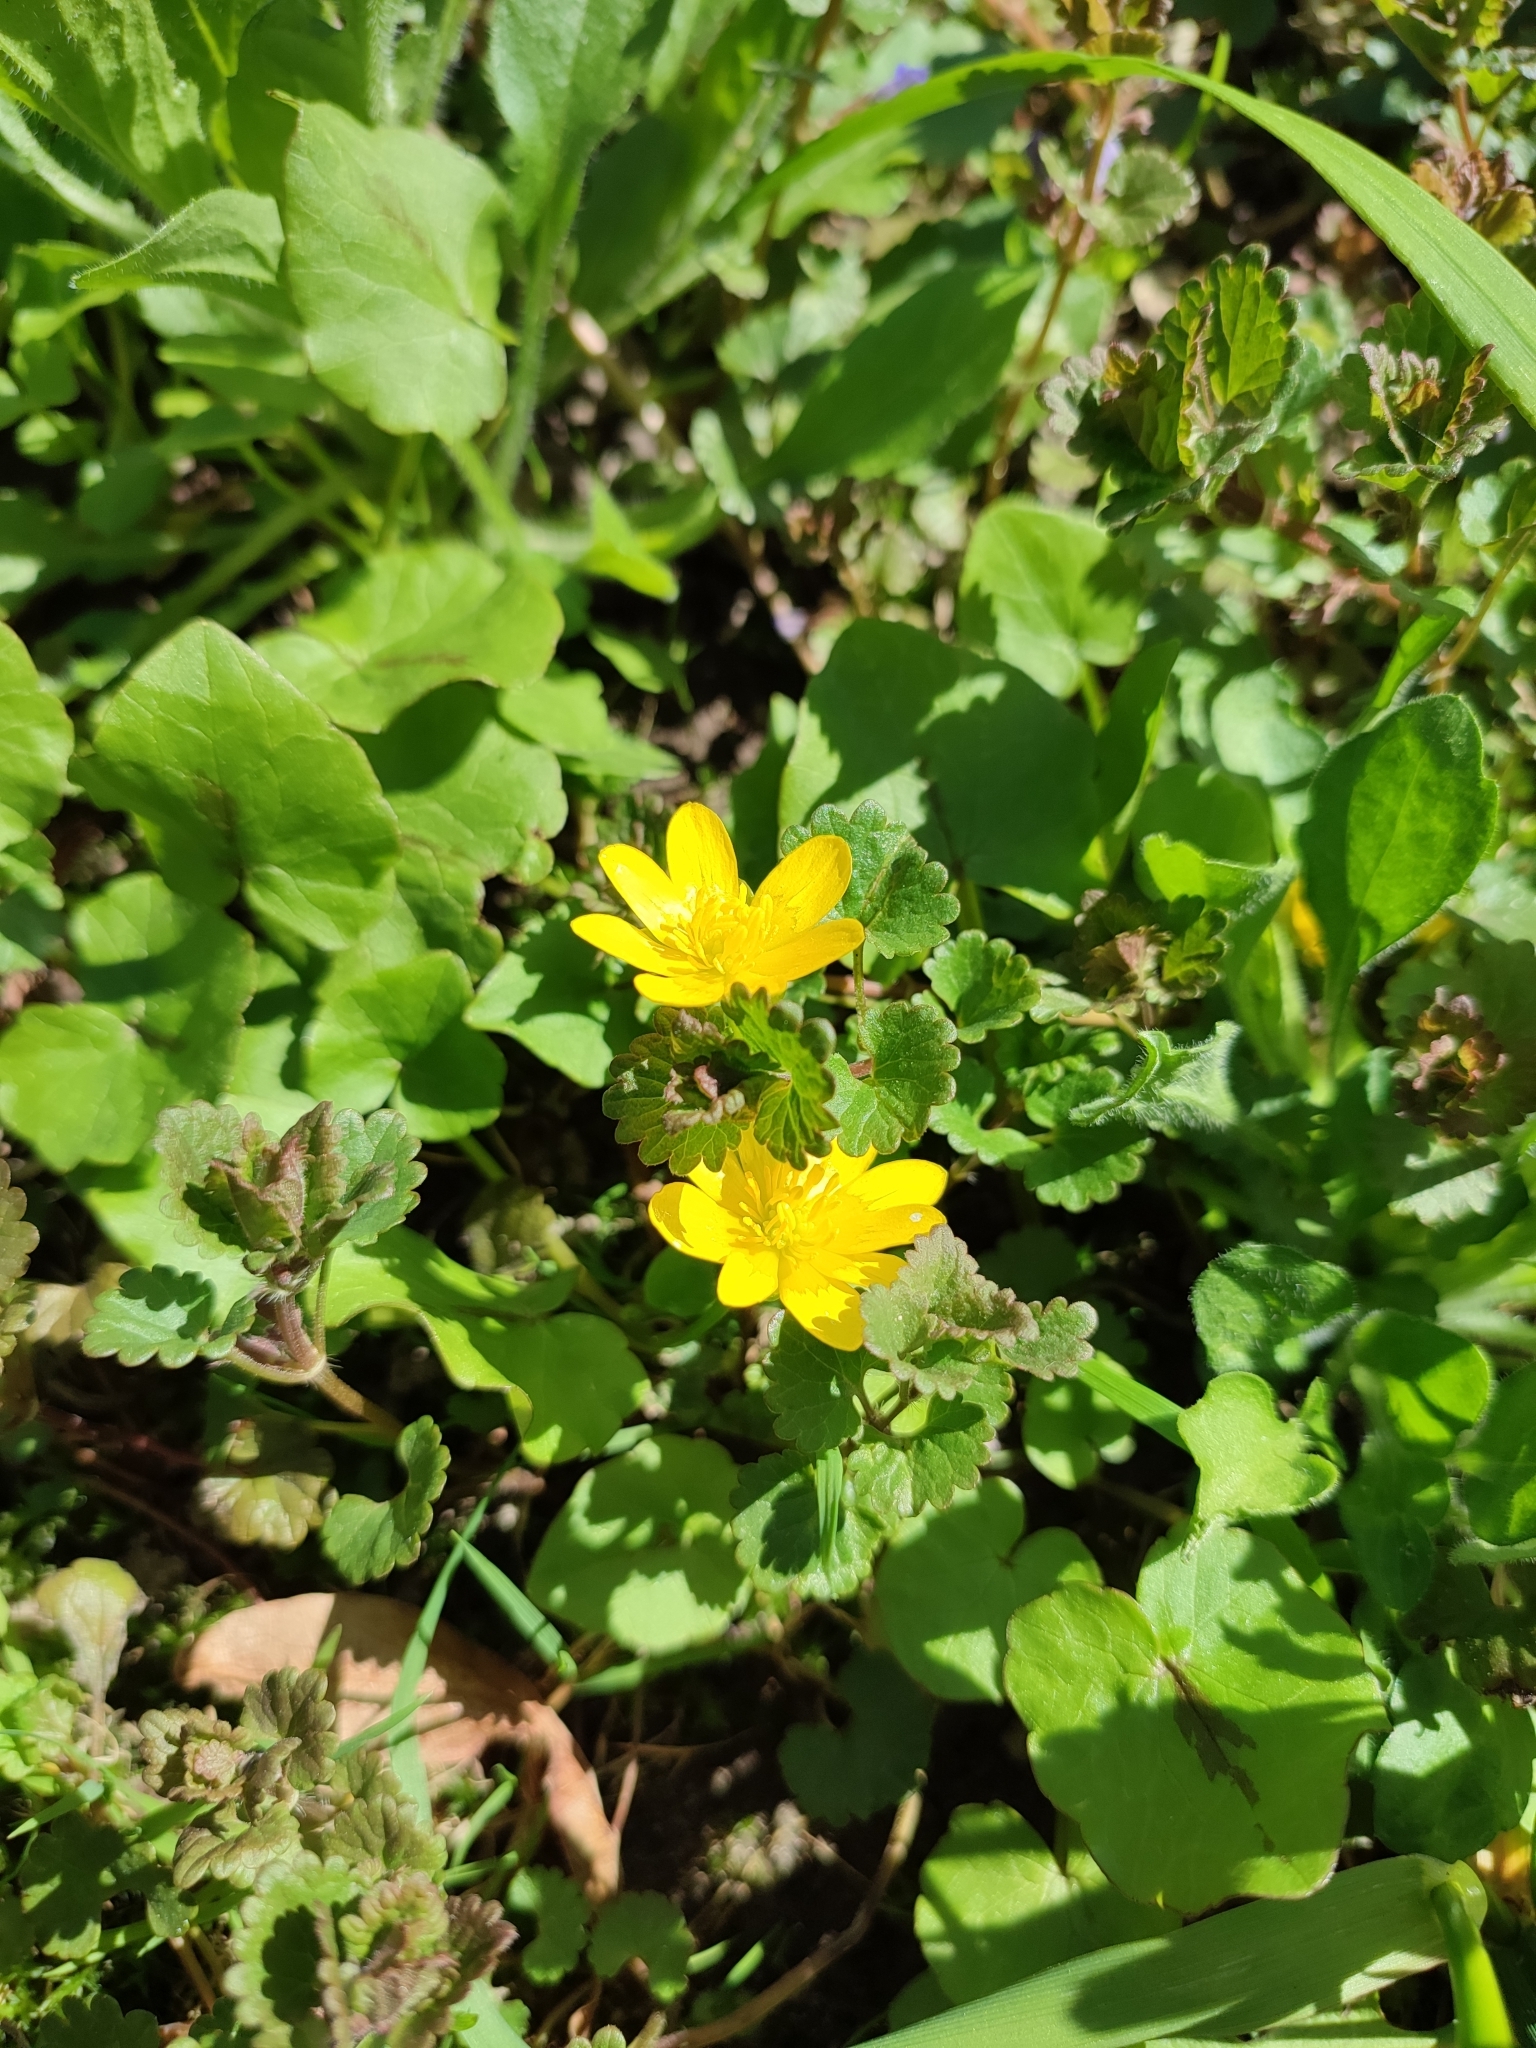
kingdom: Plantae
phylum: Tracheophyta
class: Magnoliopsida
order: Ranunculales
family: Ranunculaceae
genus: Ficaria
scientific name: Ficaria verna
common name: Lesser celandine
